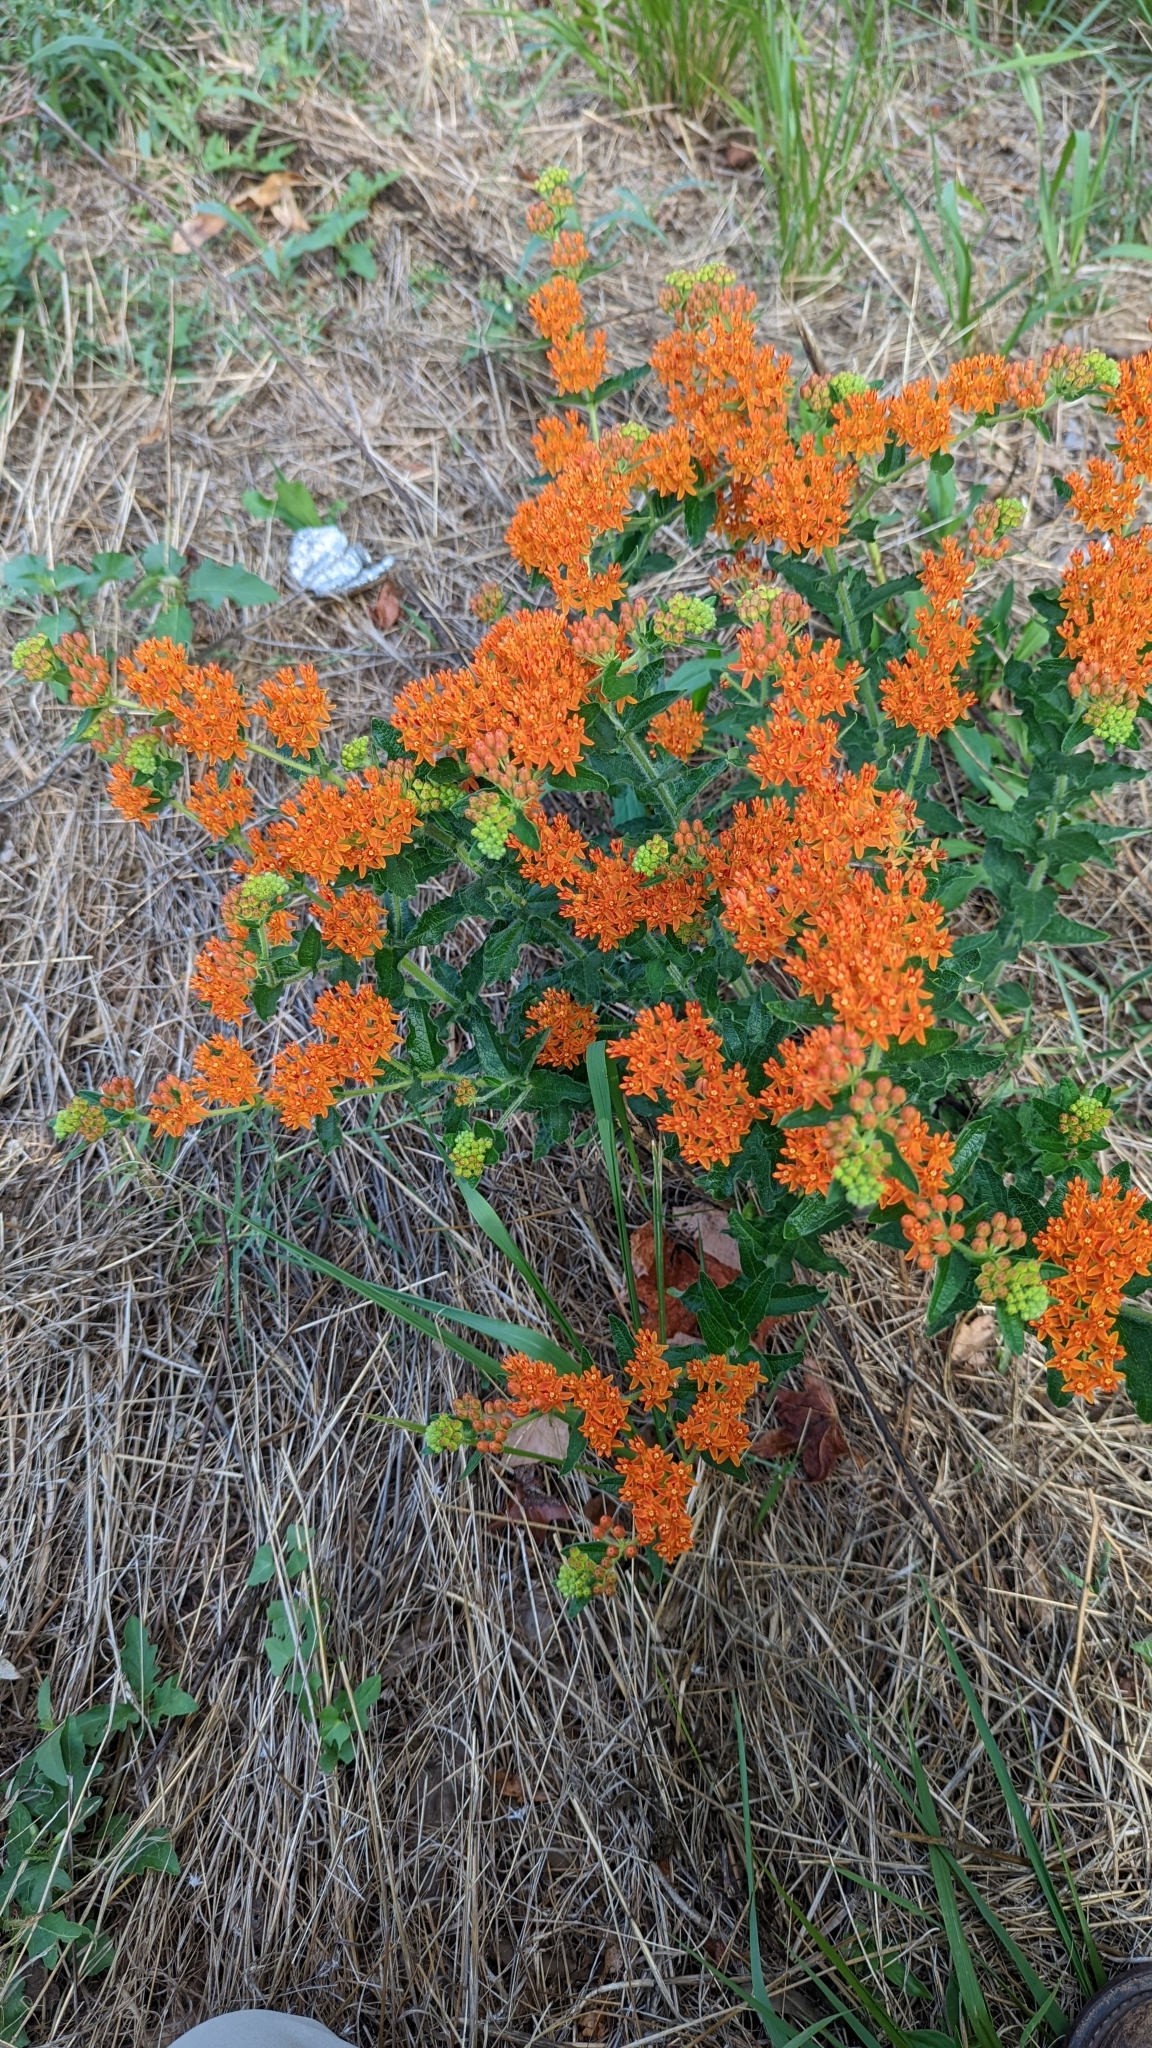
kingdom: Plantae
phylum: Tracheophyta
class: Magnoliopsida
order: Gentianales
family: Apocynaceae
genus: Asclepias
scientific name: Asclepias tuberosa
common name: Butterfly milkweed
